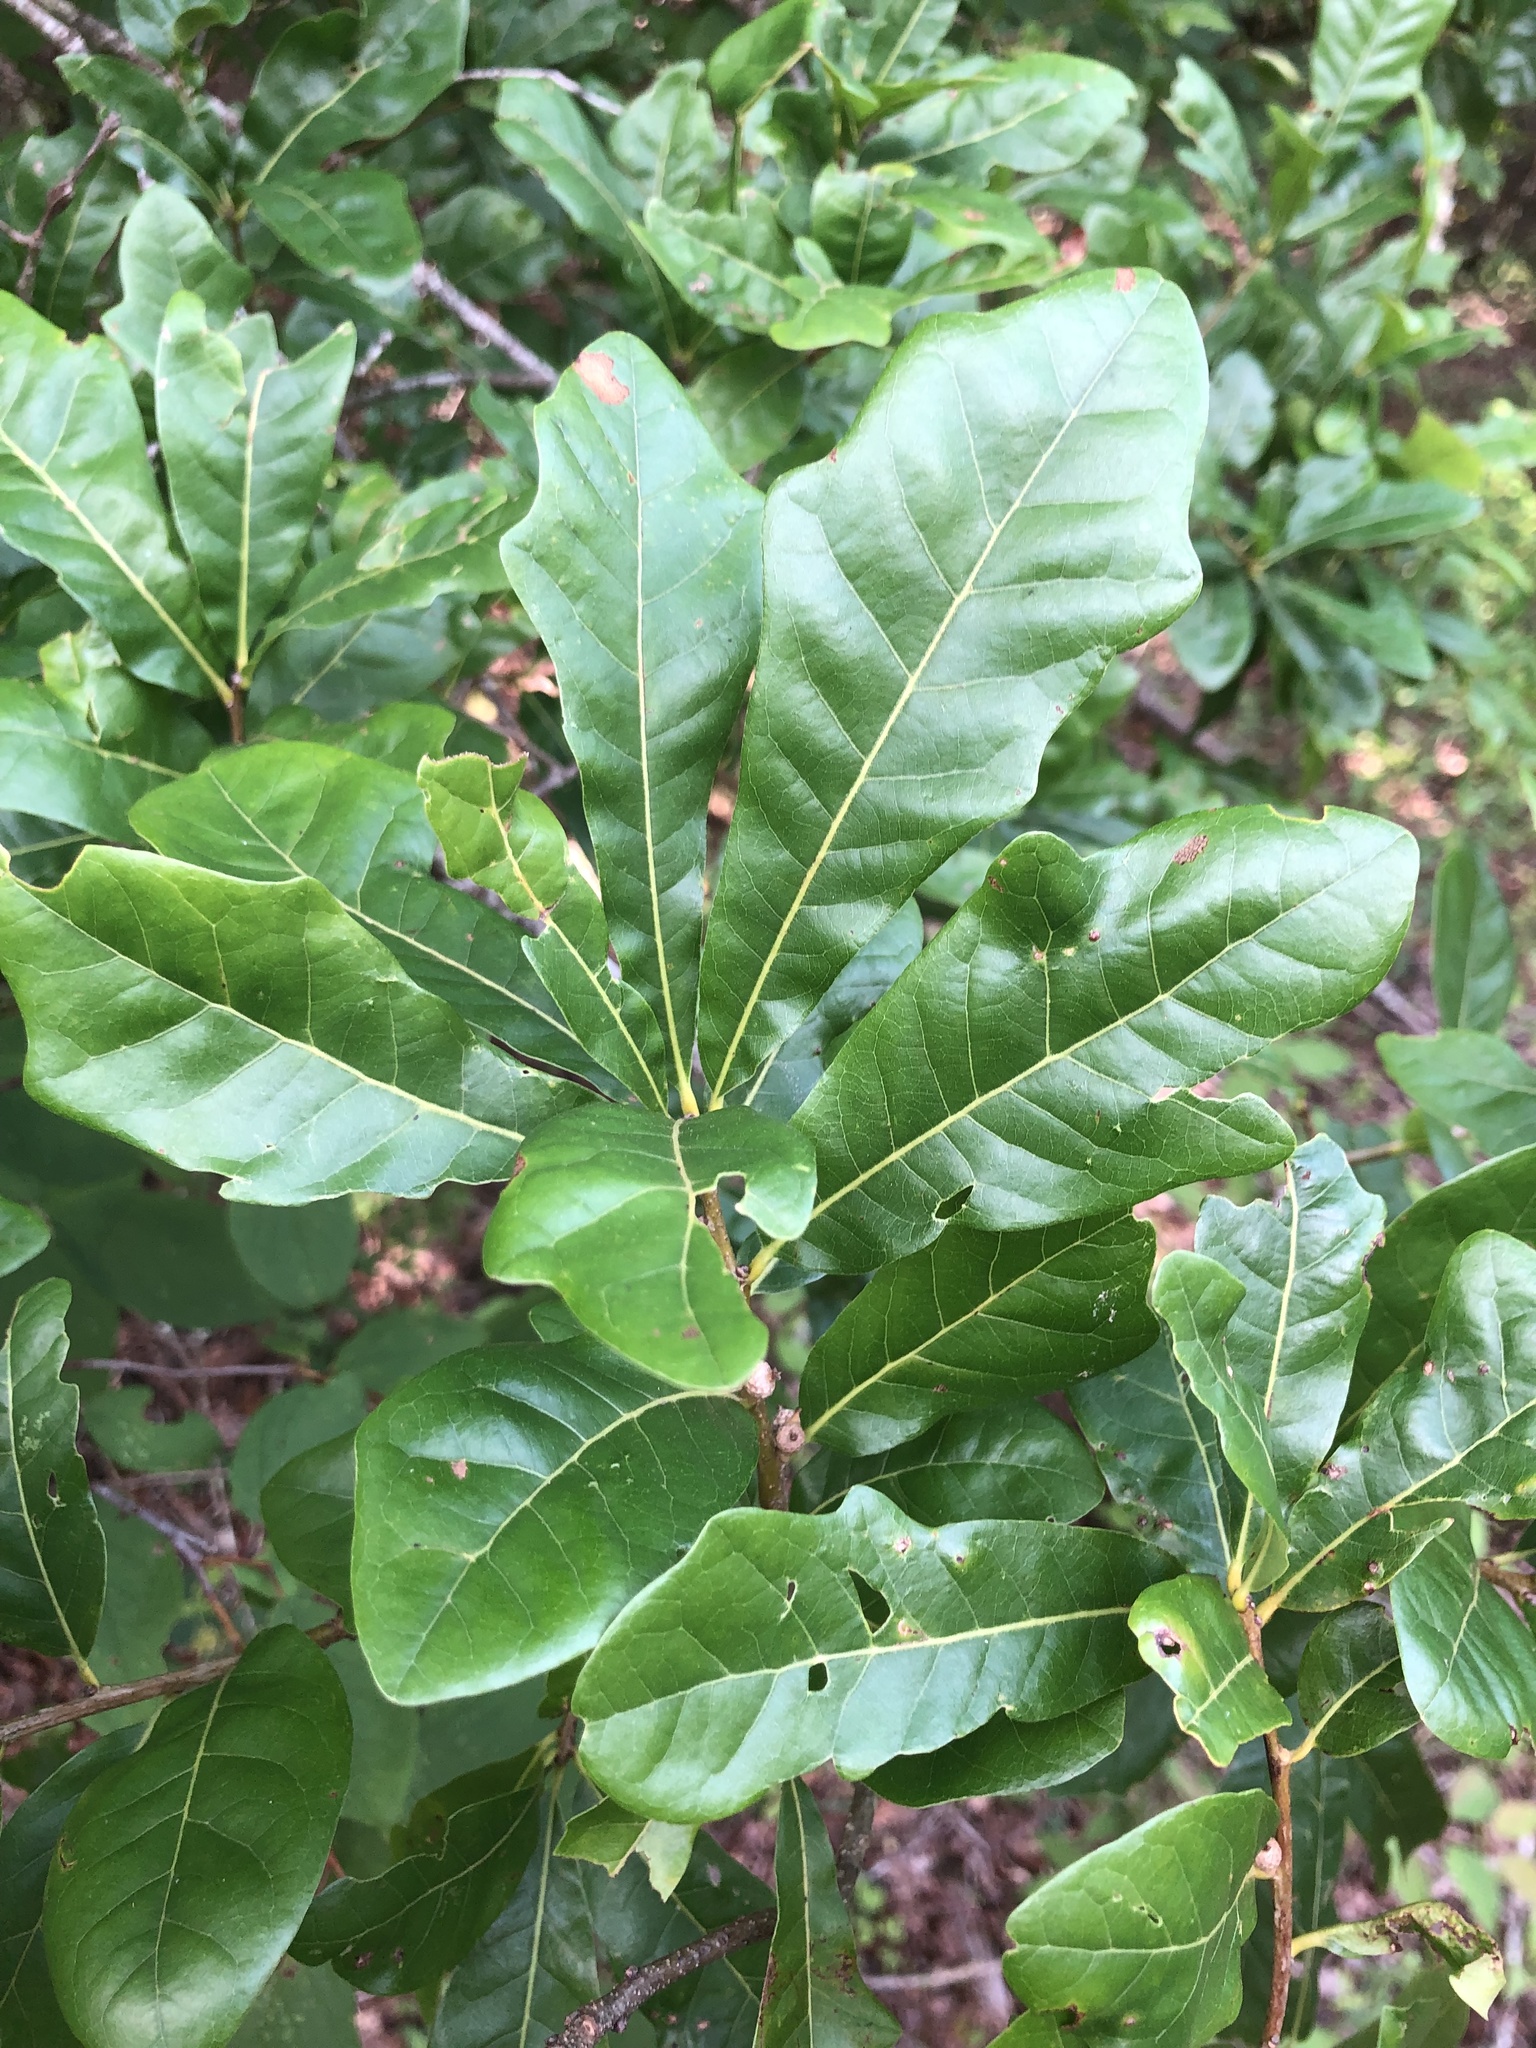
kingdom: Plantae
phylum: Tracheophyta
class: Magnoliopsida
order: Fagales
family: Fagaceae
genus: Quercus
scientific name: Quercus sinuata
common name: Durand oak
